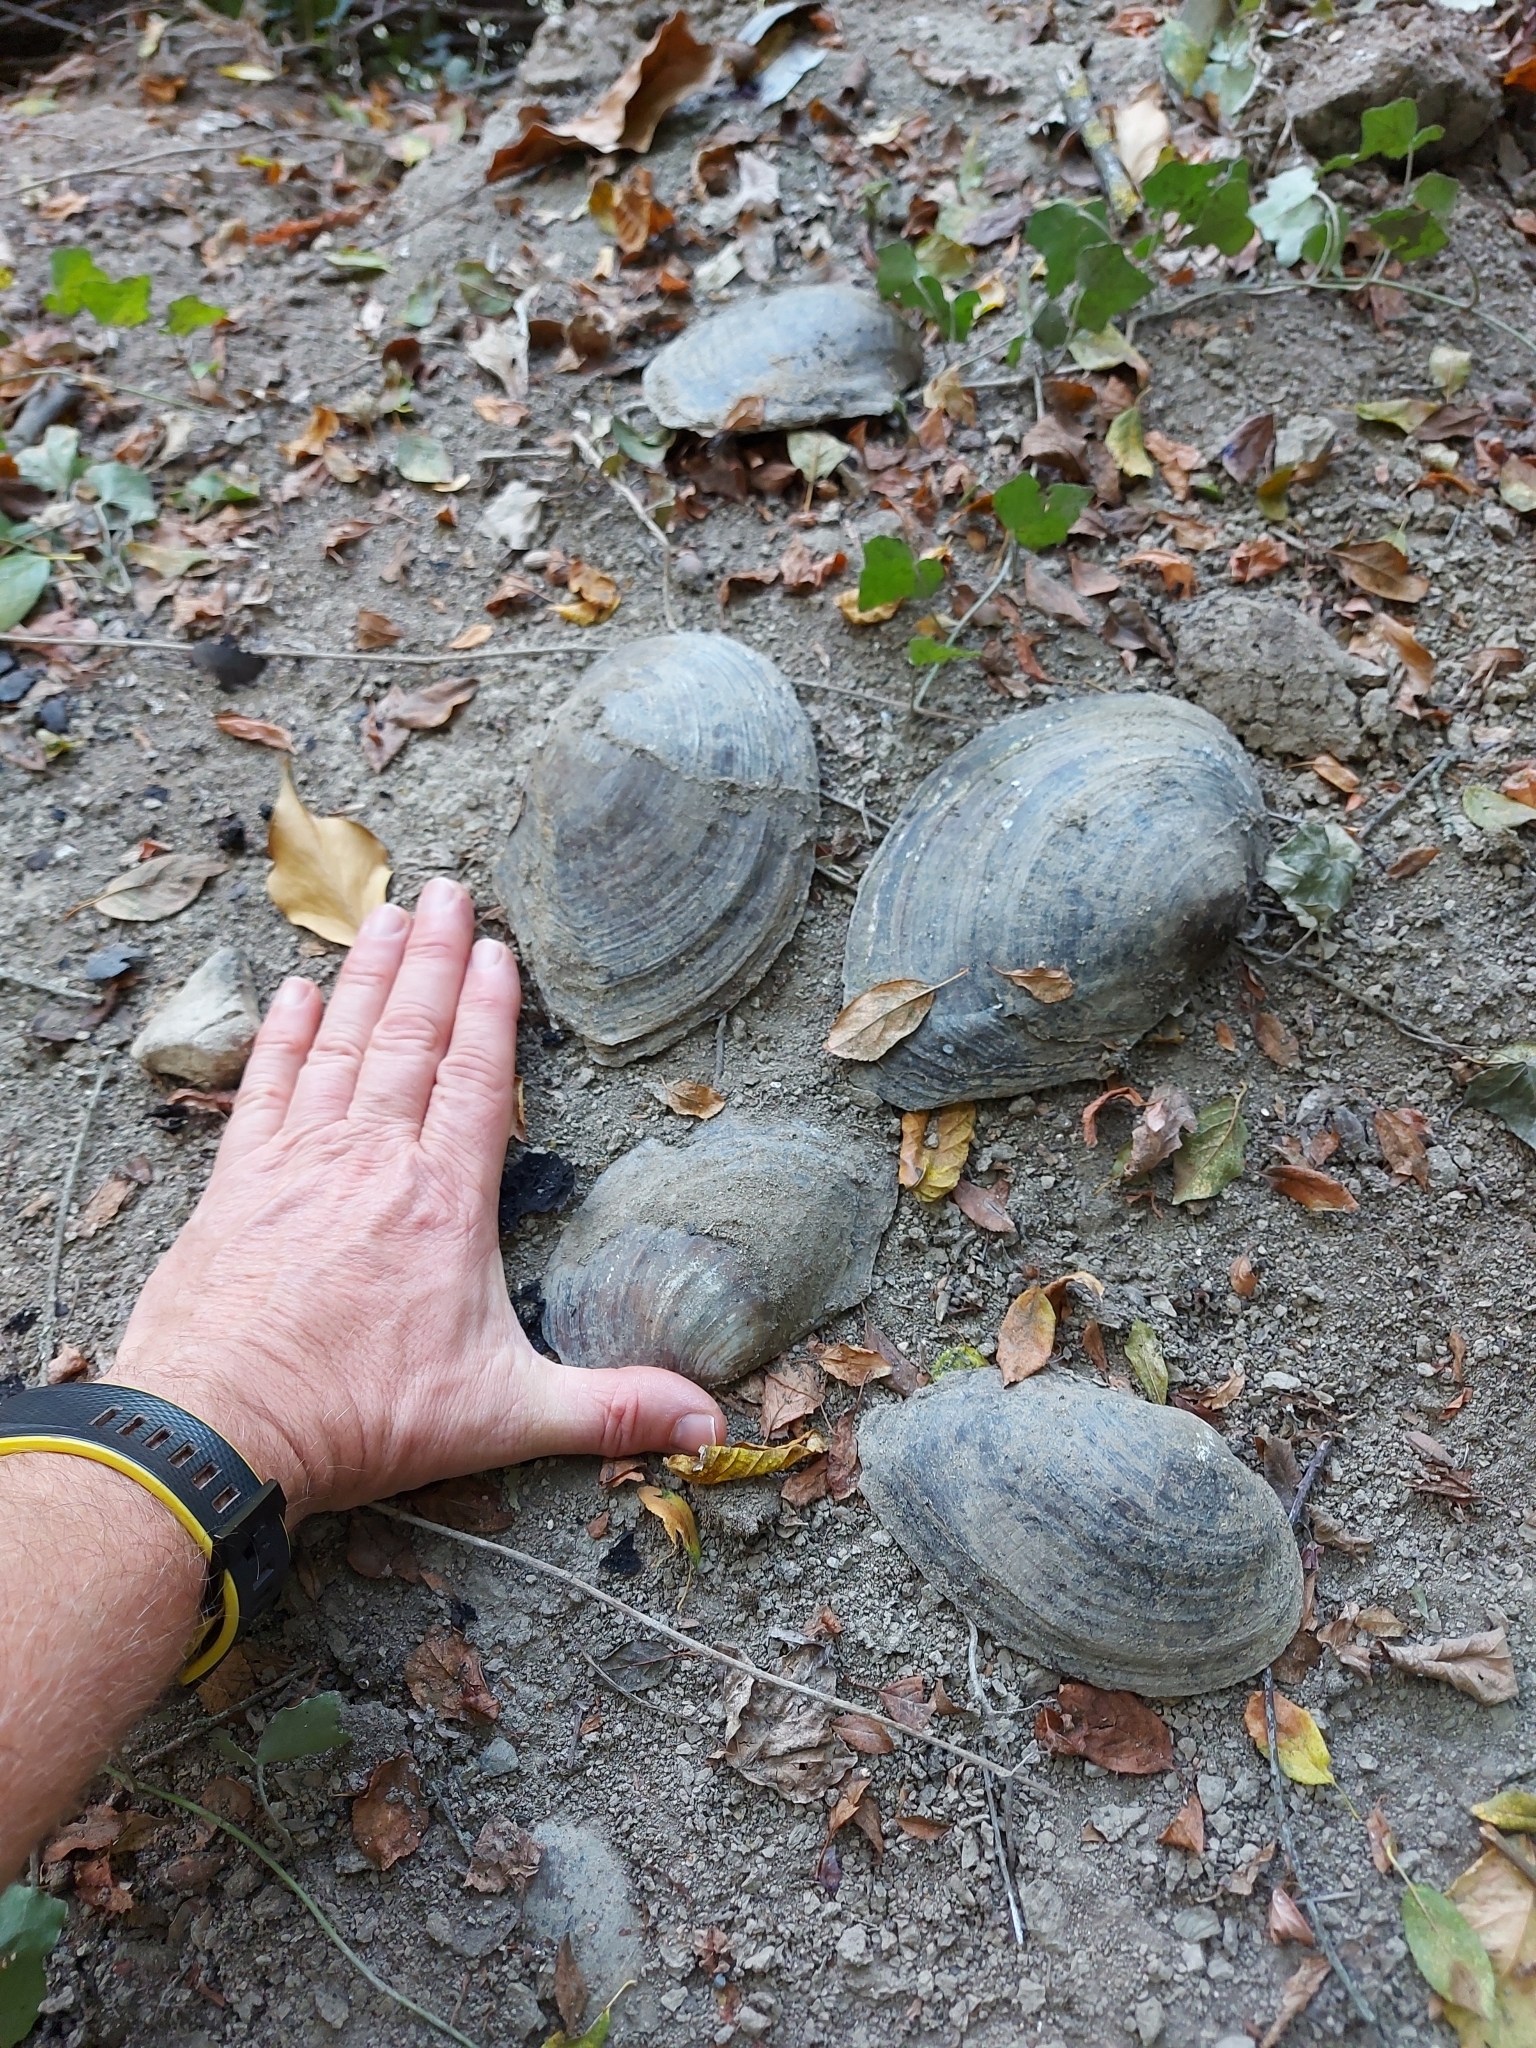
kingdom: Animalia
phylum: Mollusca
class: Bivalvia
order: Unionida
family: Unionidae
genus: Sinanodonta
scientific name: Sinanodonta woodiana
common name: Chinese pond mussel
